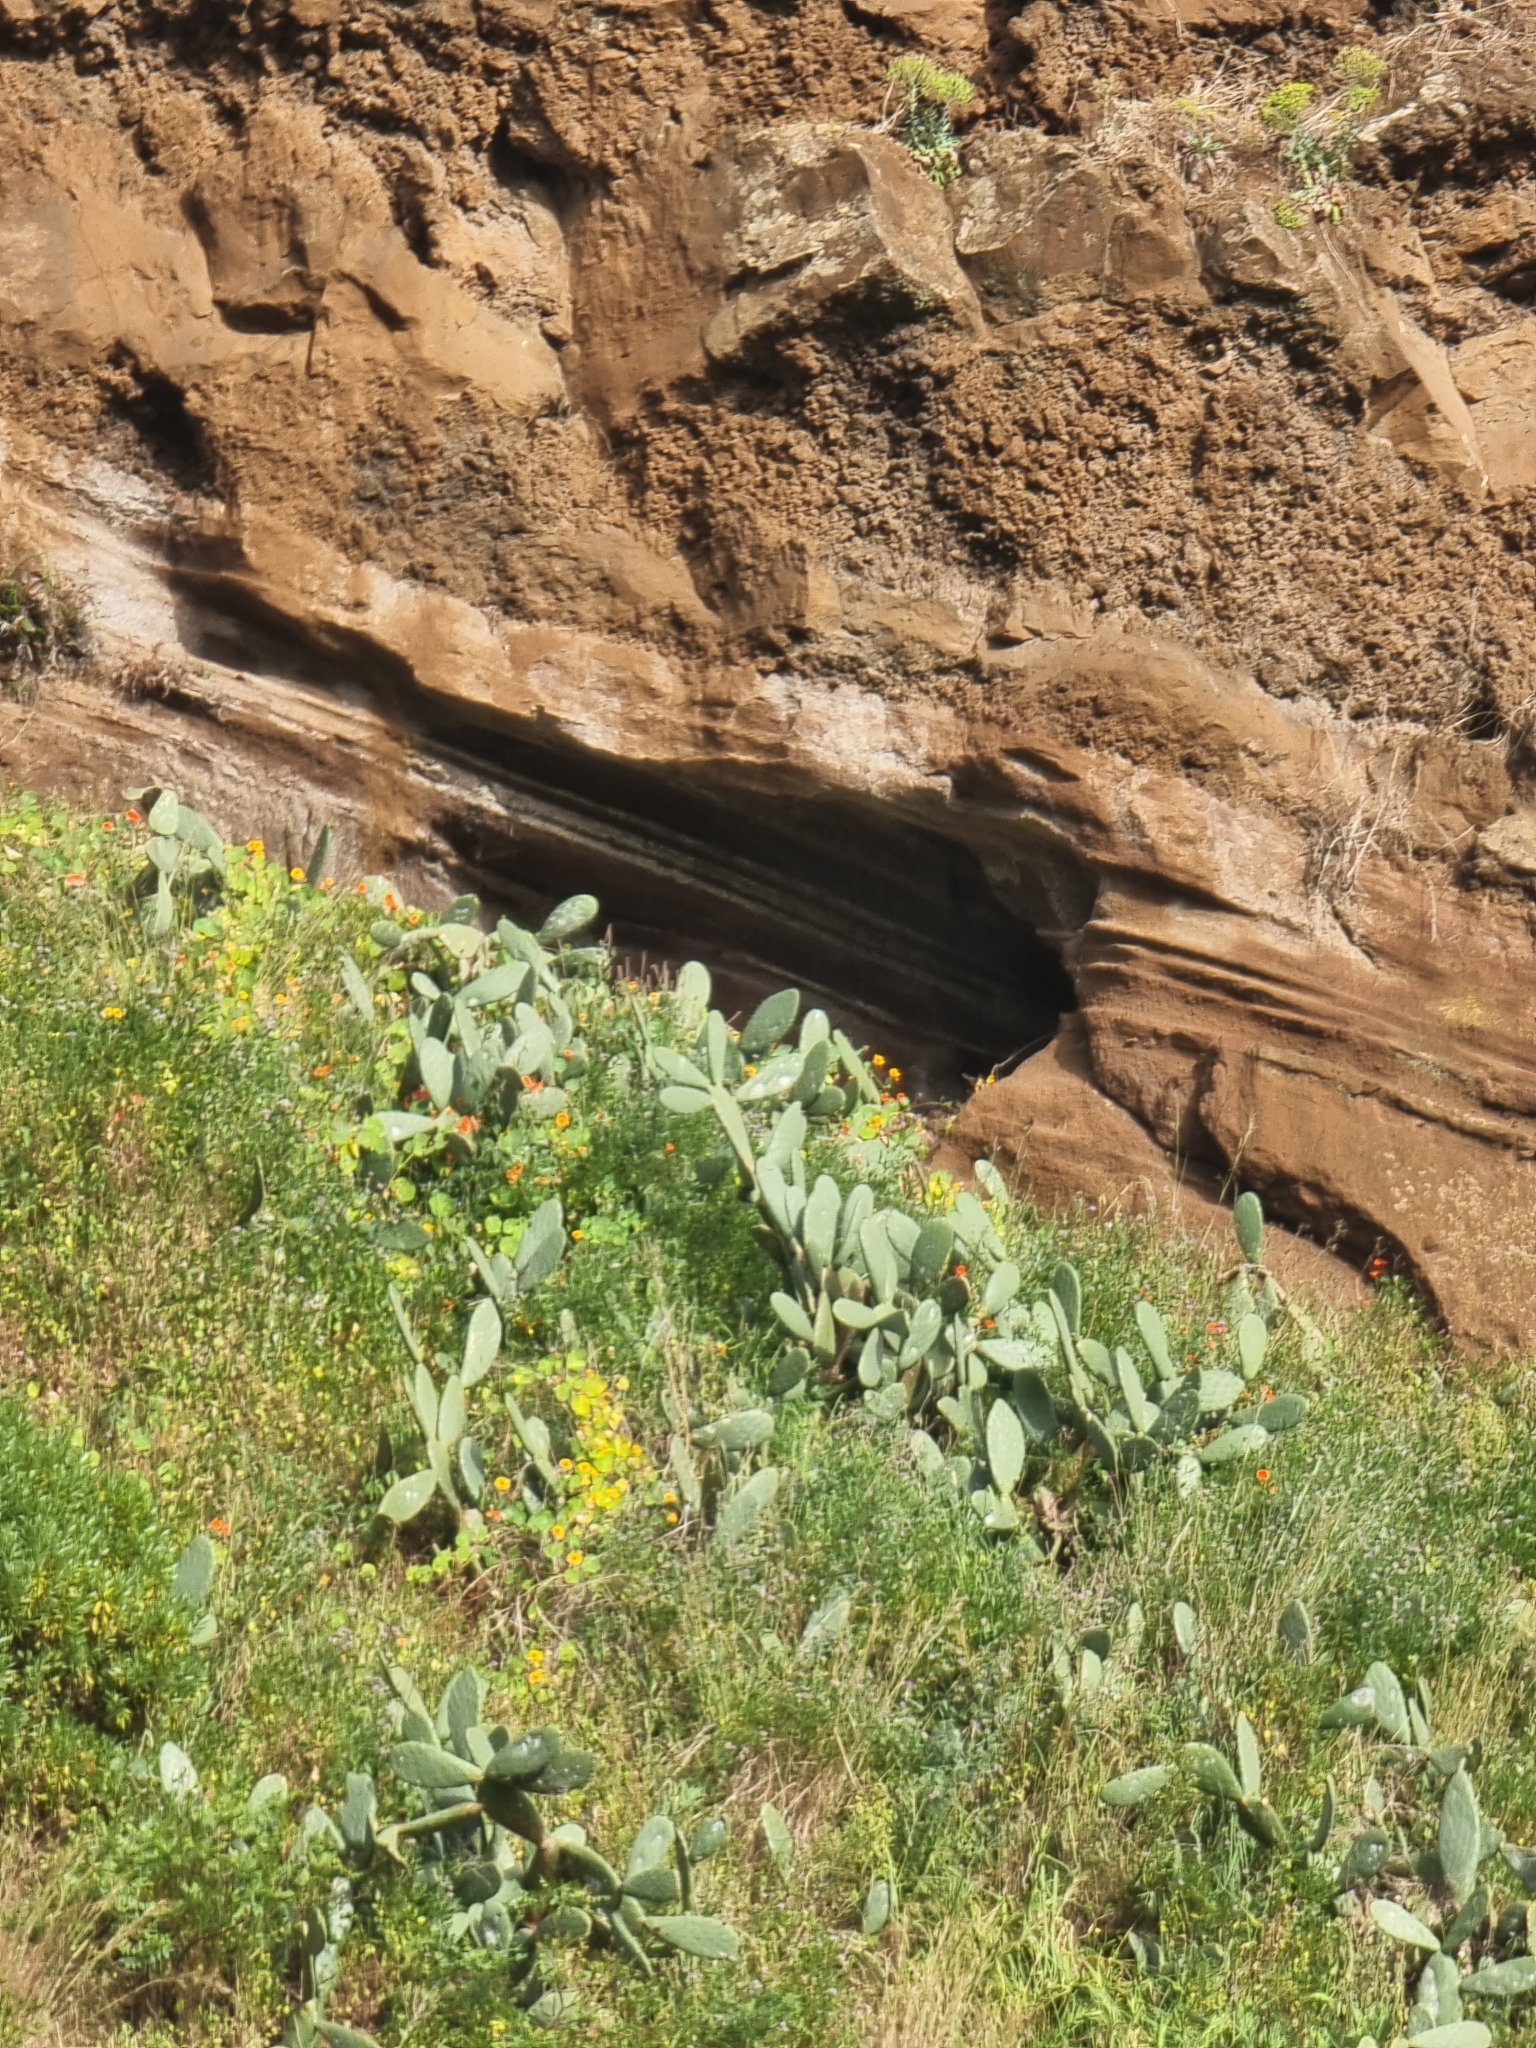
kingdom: Plantae
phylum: Tracheophyta
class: Magnoliopsida
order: Caryophyllales
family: Cactaceae
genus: Opuntia
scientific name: Opuntia ficus-indica
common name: Barbary fig
